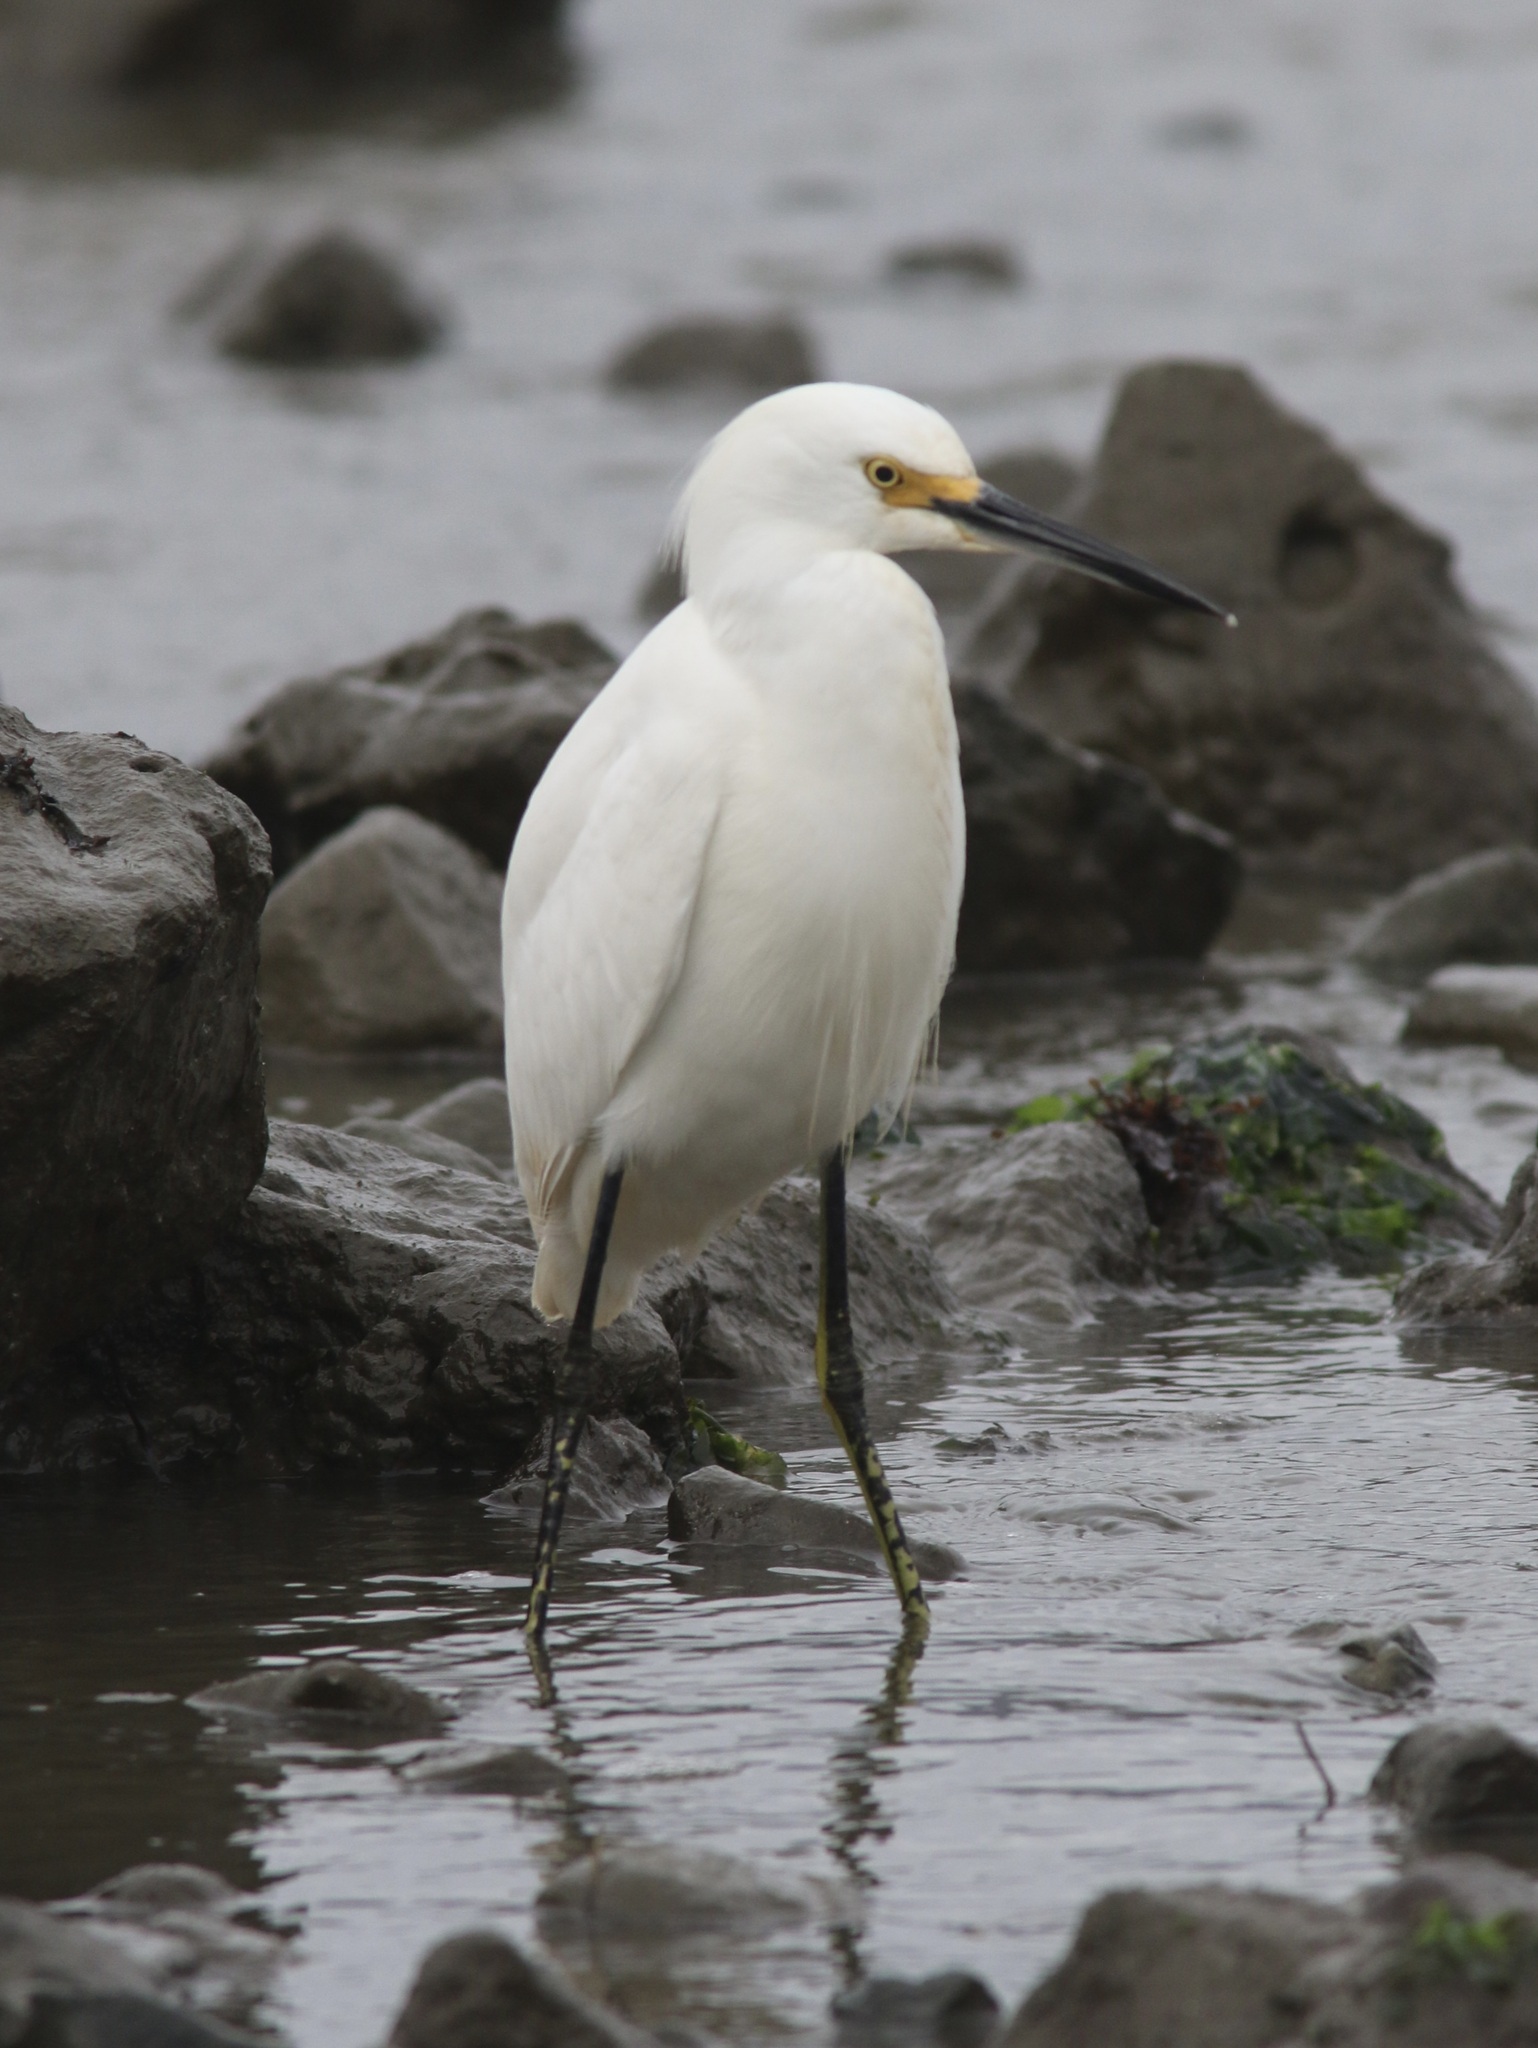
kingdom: Animalia
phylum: Chordata
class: Aves
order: Pelecaniformes
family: Ardeidae
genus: Egretta
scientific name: Egretta thula
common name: Snowy egret
